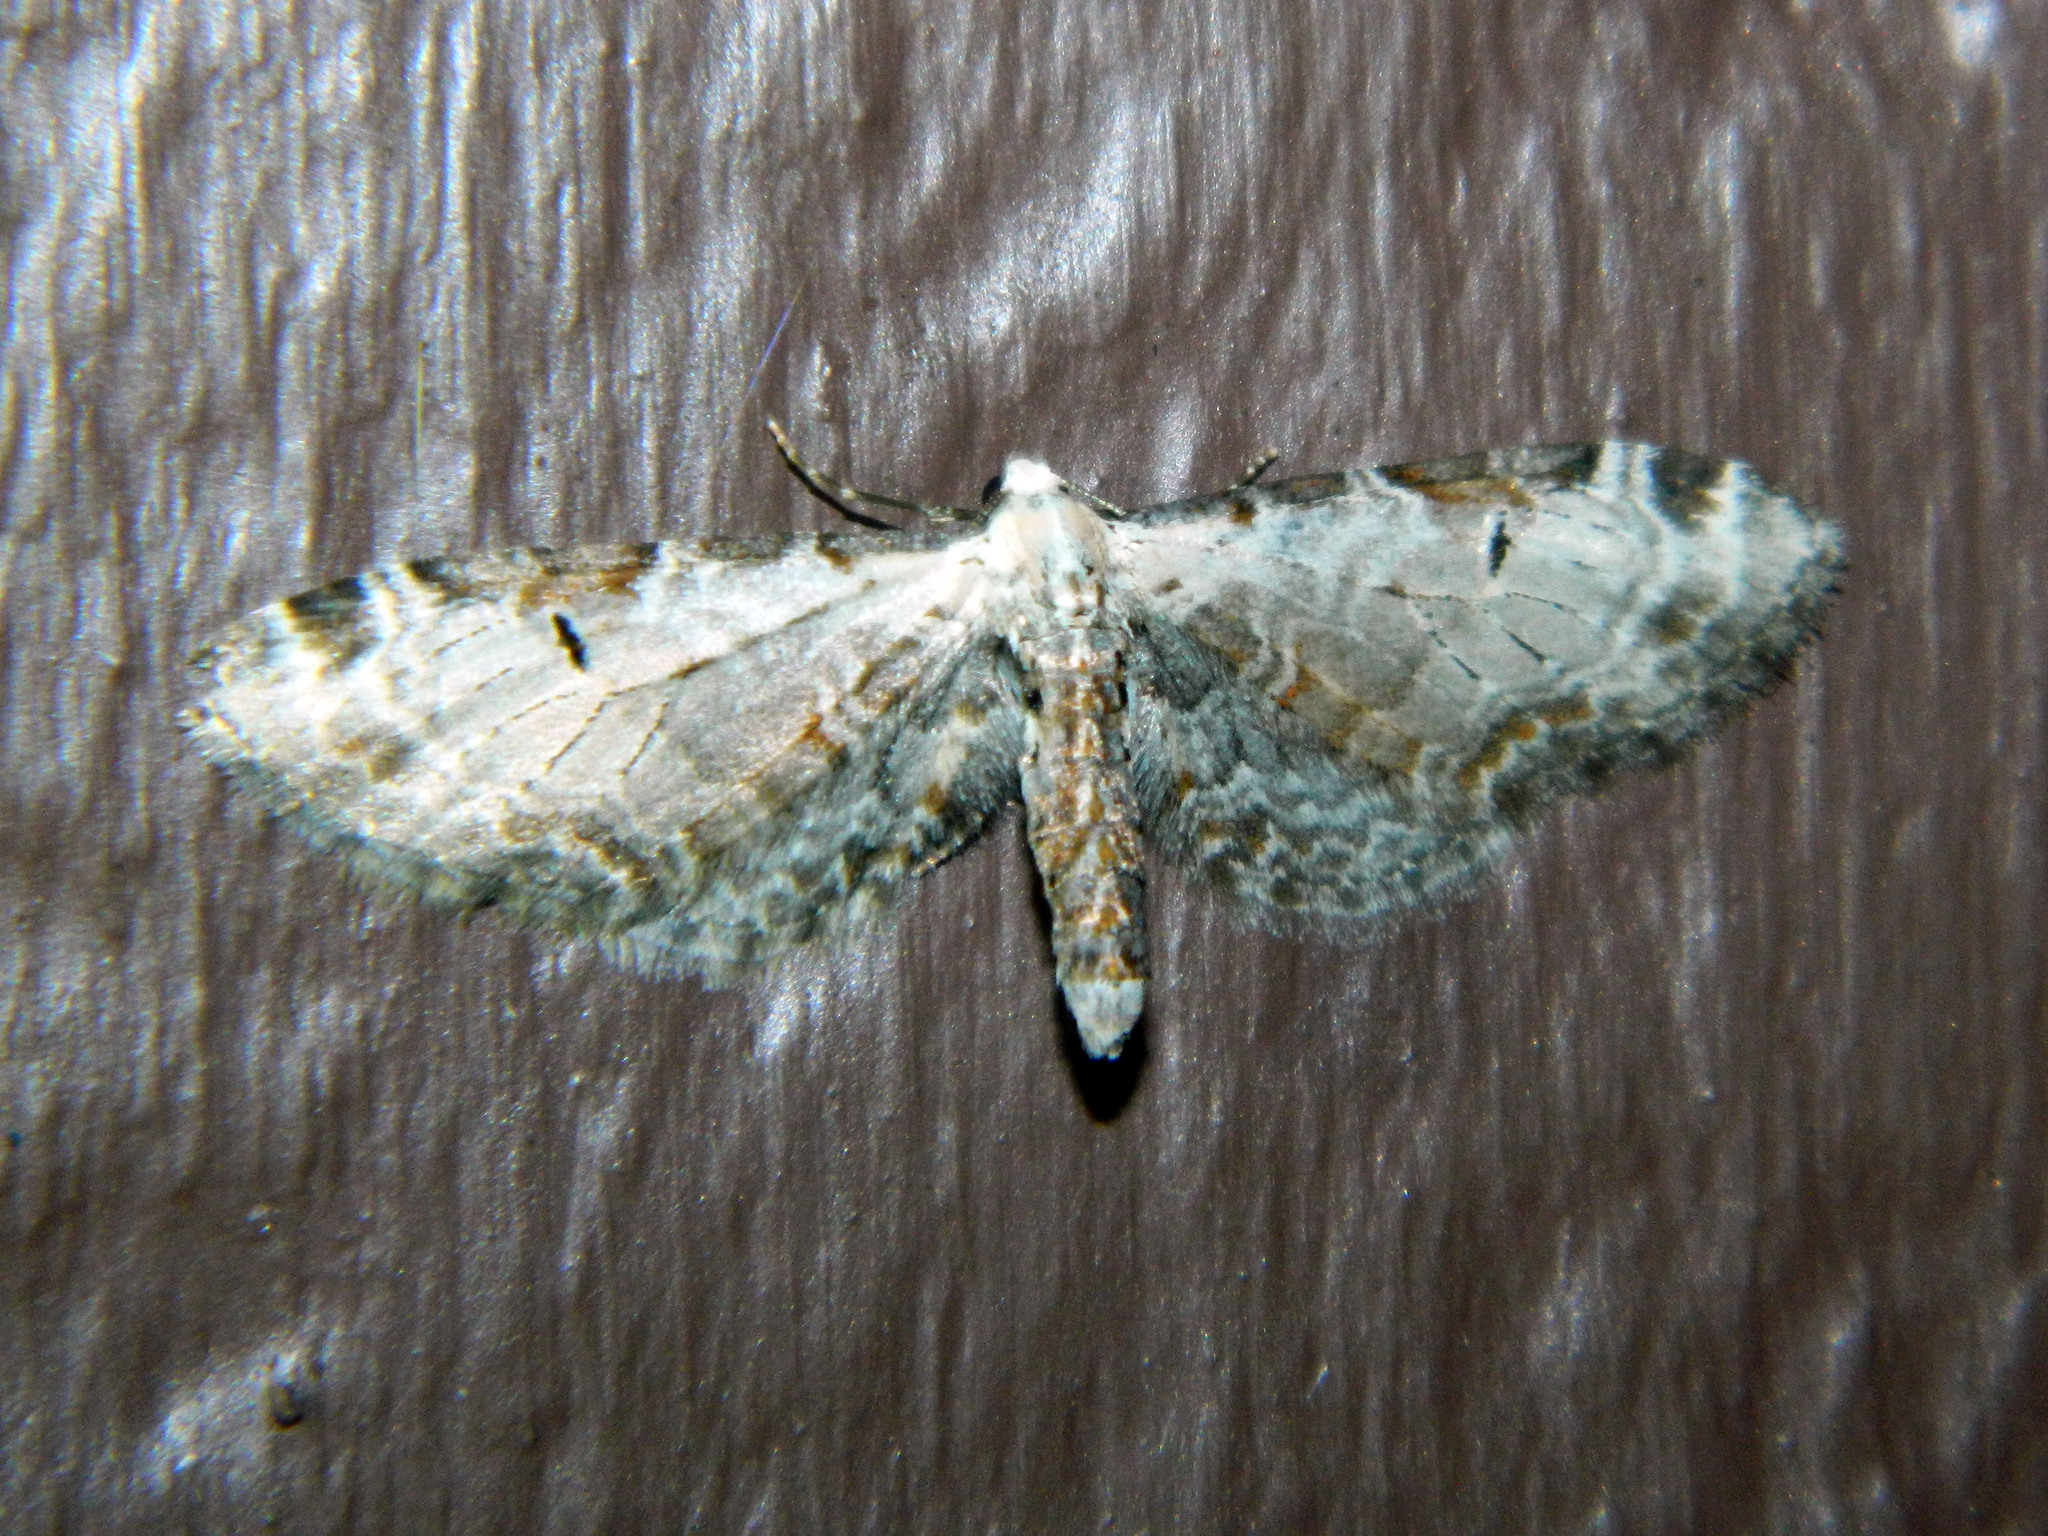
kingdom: Animalia
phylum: Arthropoda
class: Insecta
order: Lepidoptera
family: Geometridae
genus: Eupithecia
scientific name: Eupithecia ravocostaliata
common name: Great varigated pug
